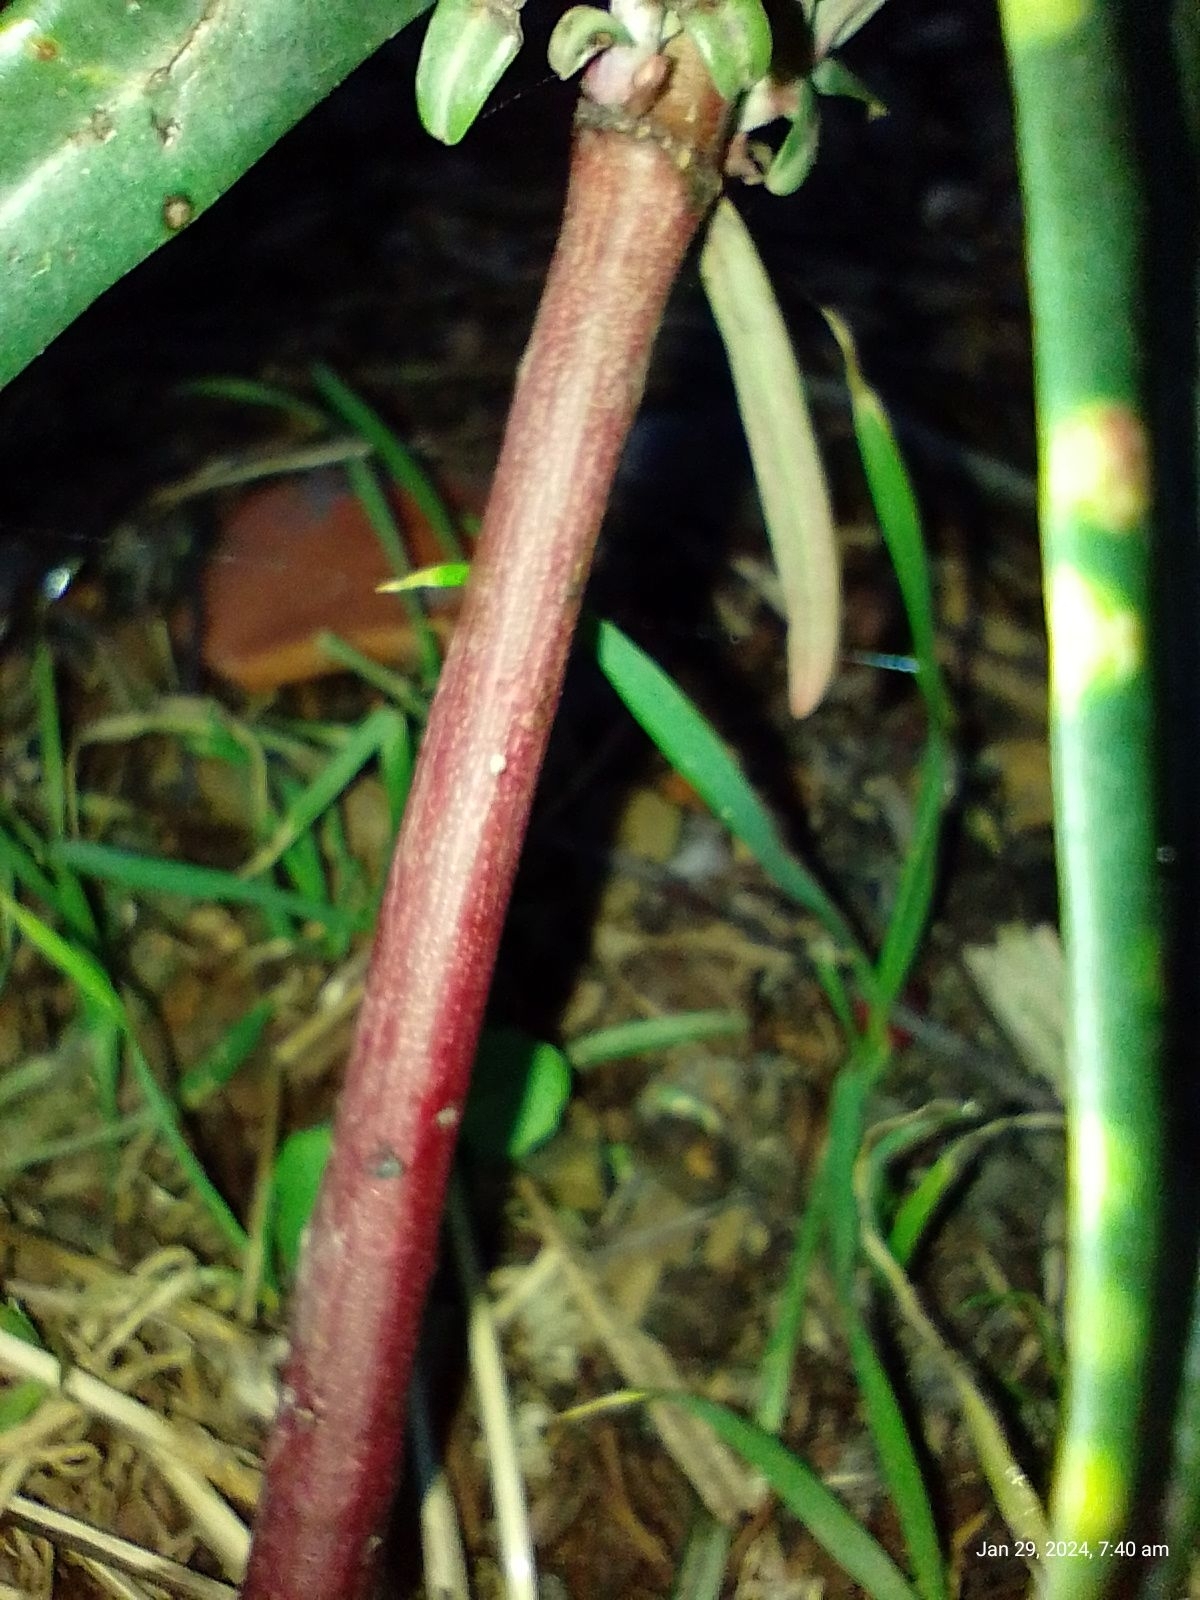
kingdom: Plantae
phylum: Tracheophyta
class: Magnoliopsida
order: Malpighiales
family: Euphorbiaceae
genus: Euphorbia
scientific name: Euphorbia lathyris
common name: Caper spurge
